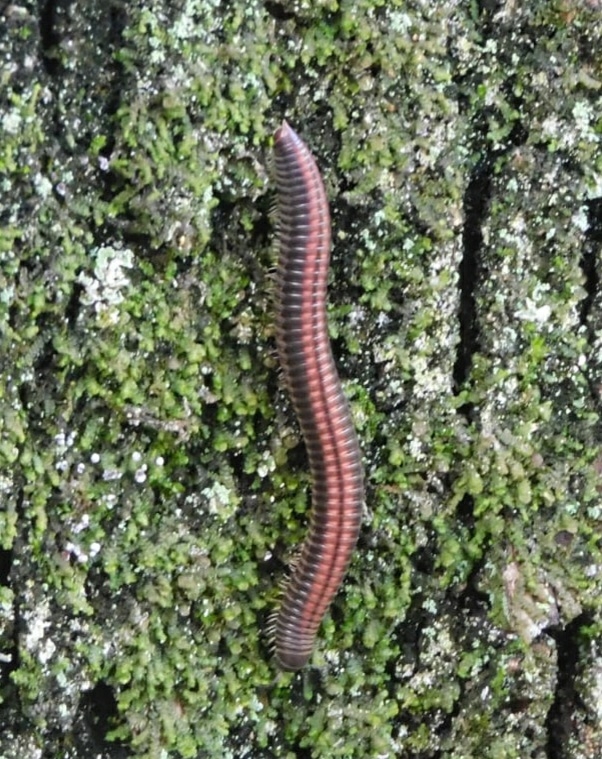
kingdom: Animalia
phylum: Arthropoda
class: Diplopoda
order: Julida
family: Julidae
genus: Ommatoiulus
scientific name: Ommatoiulus sabulosus
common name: Striped millipede
